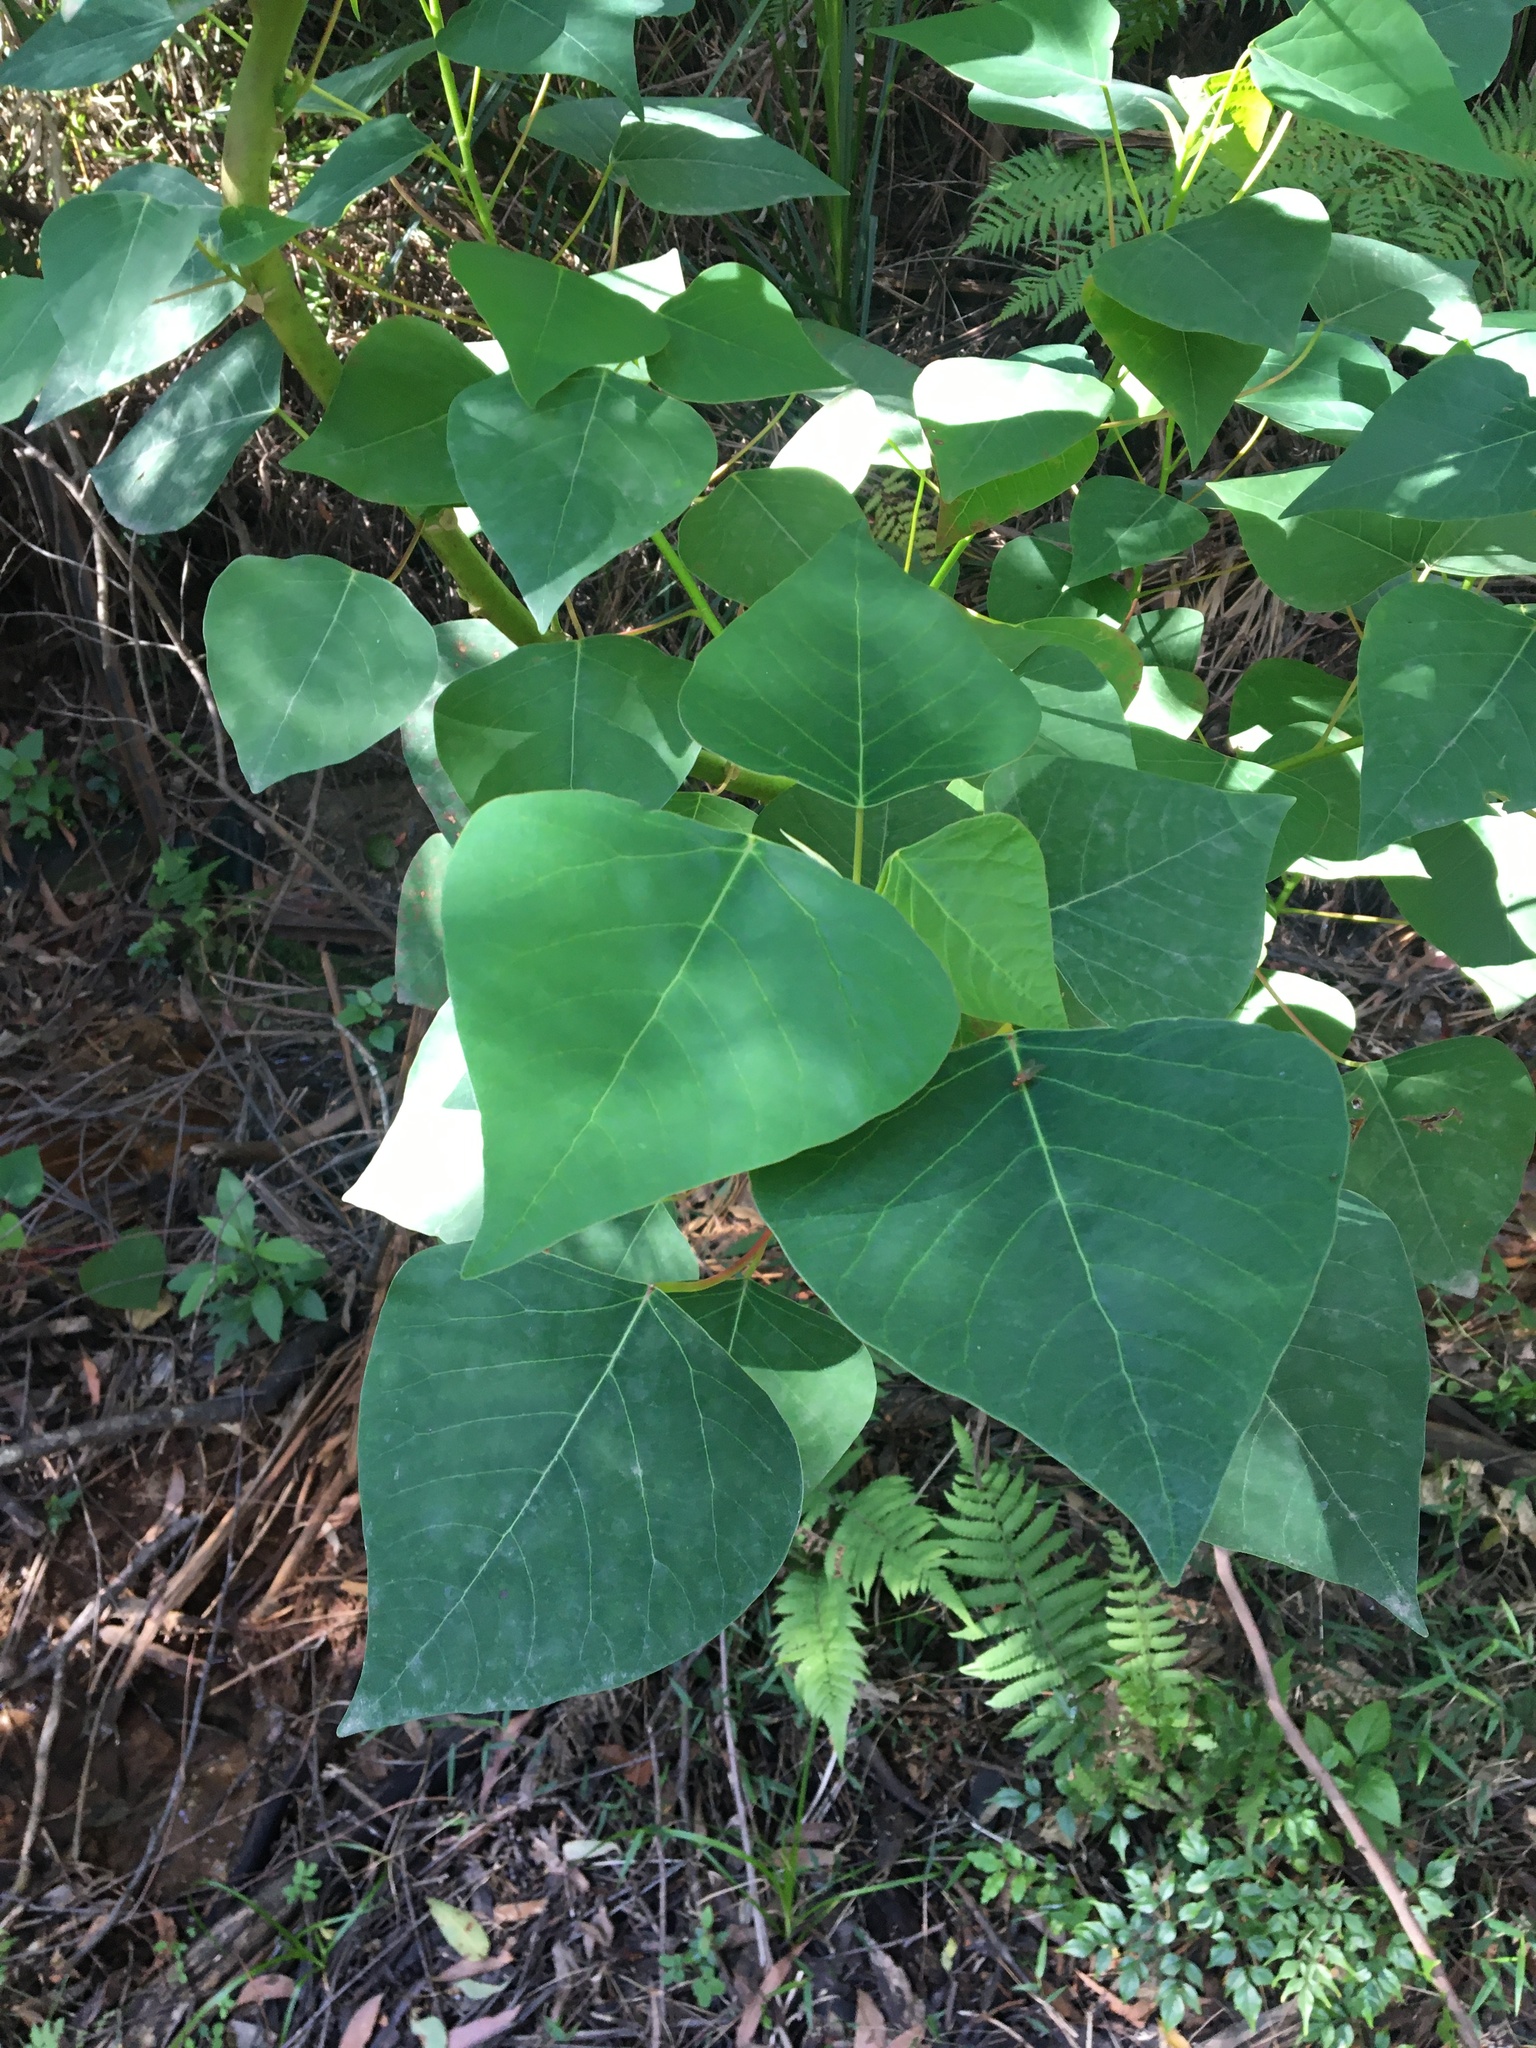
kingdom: Plantae
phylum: Tracheophyta
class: Magnoliopsida
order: Malpighiales
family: Euphorbiaceae
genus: Homalanthus
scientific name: Homalanthus populifolius
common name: Queensland poplar
